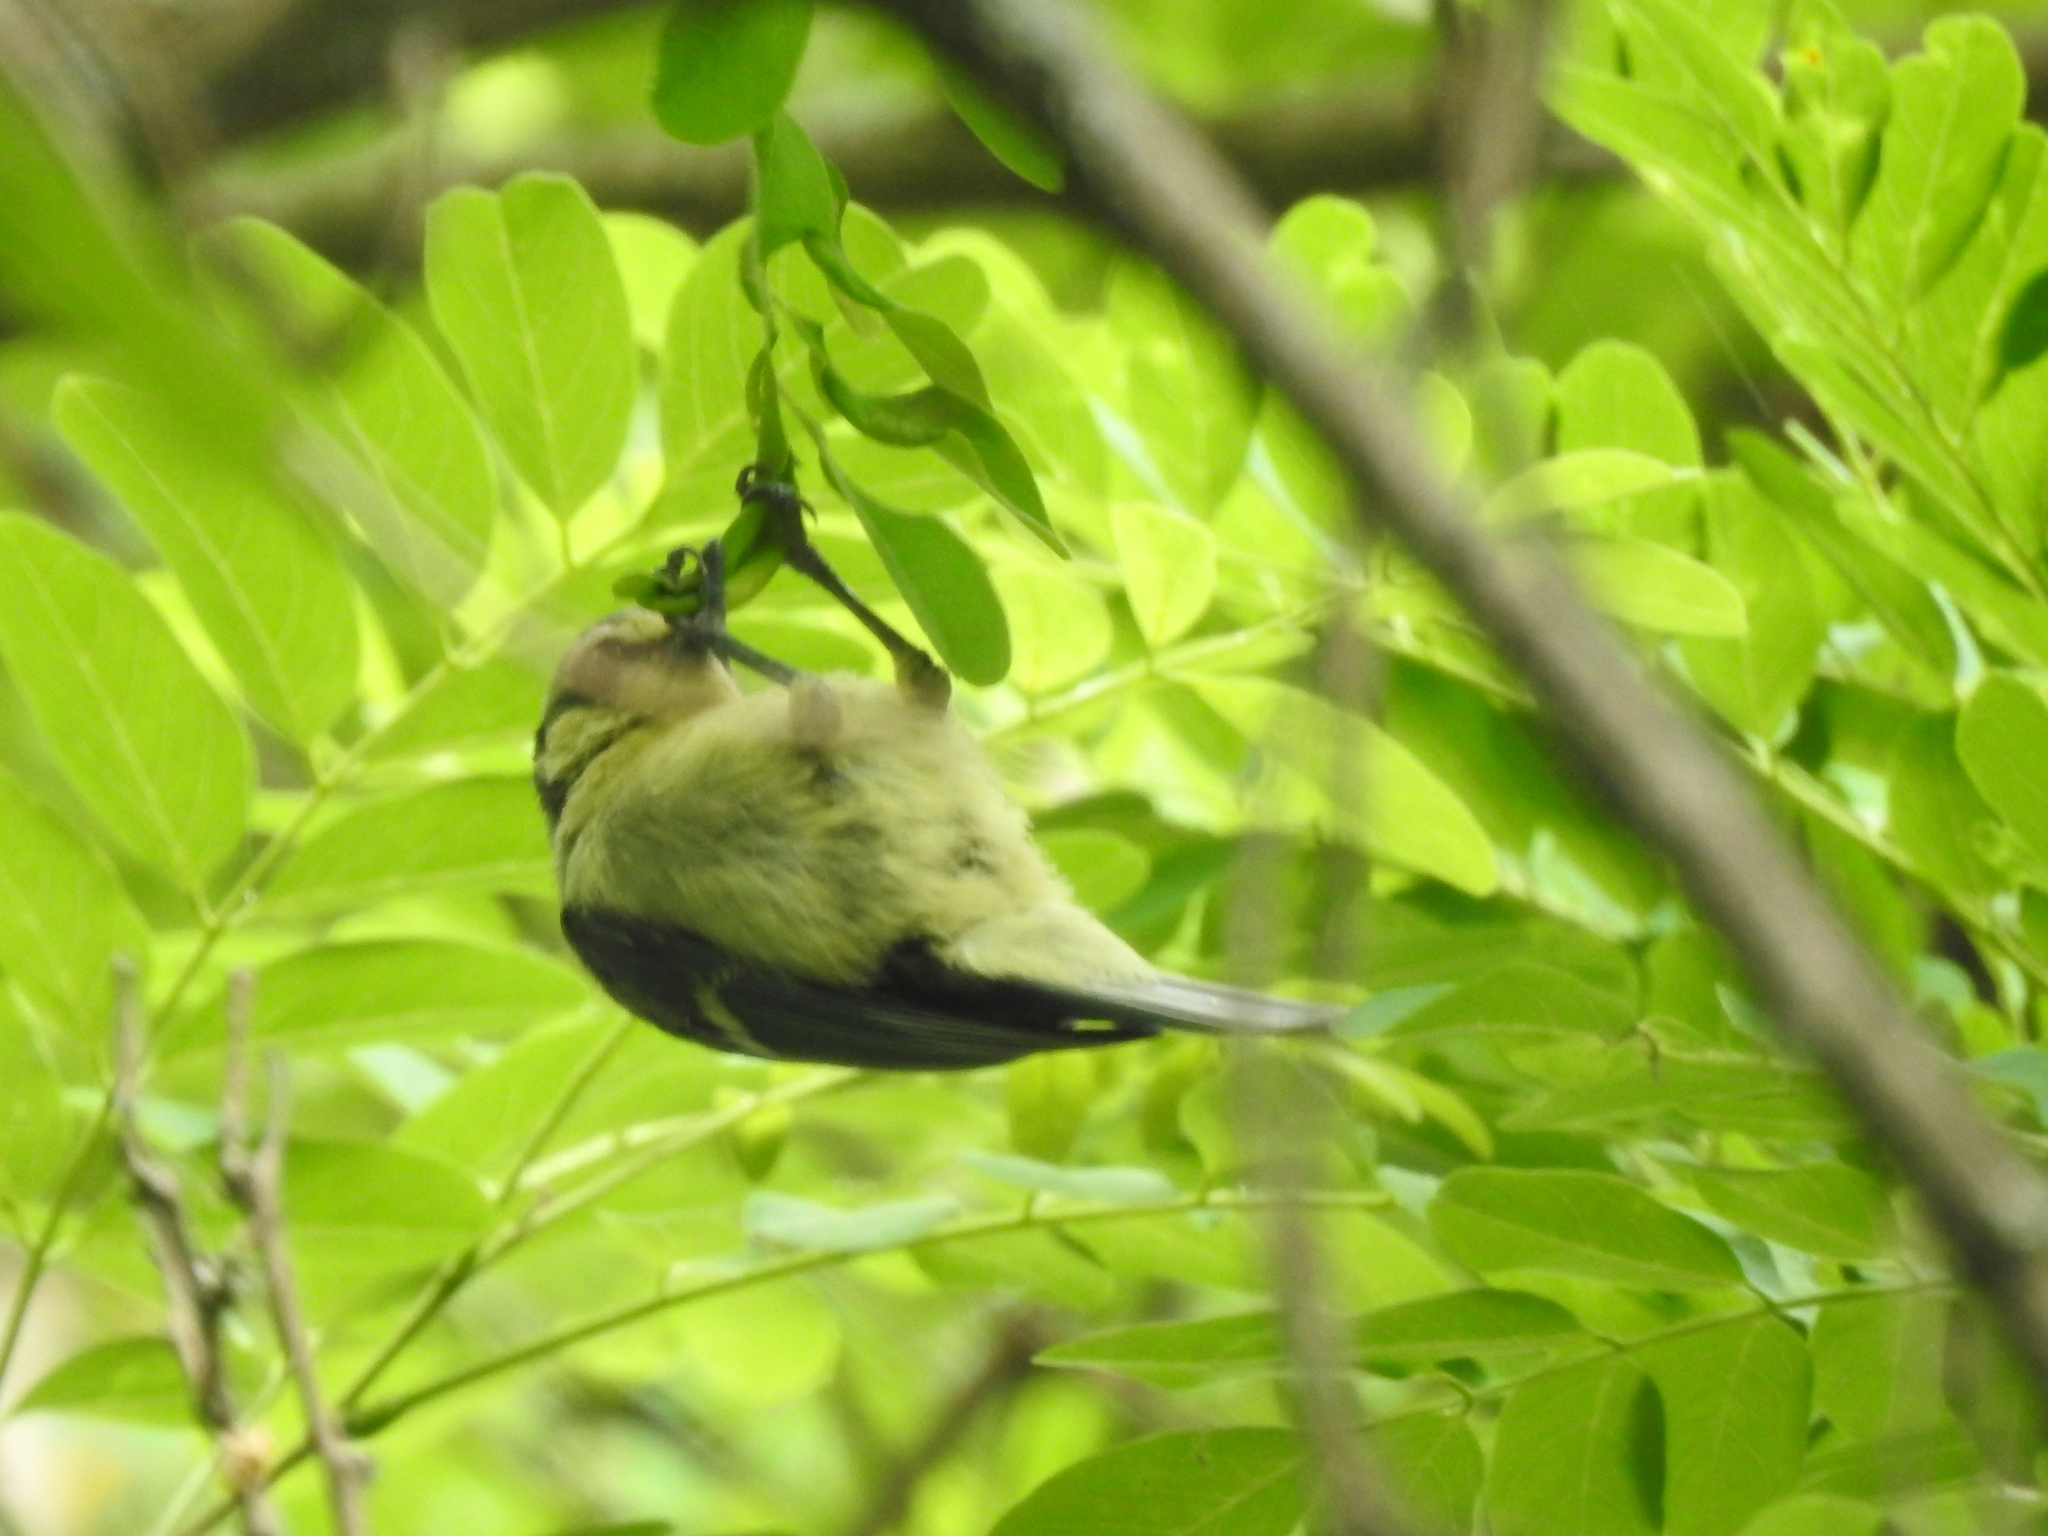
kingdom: Animalia
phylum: Chordata
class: Aves
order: Passeriformes
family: Paridae
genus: Cyanistes
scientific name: Cyanistes caeruleus
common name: Eurasian blue tit
